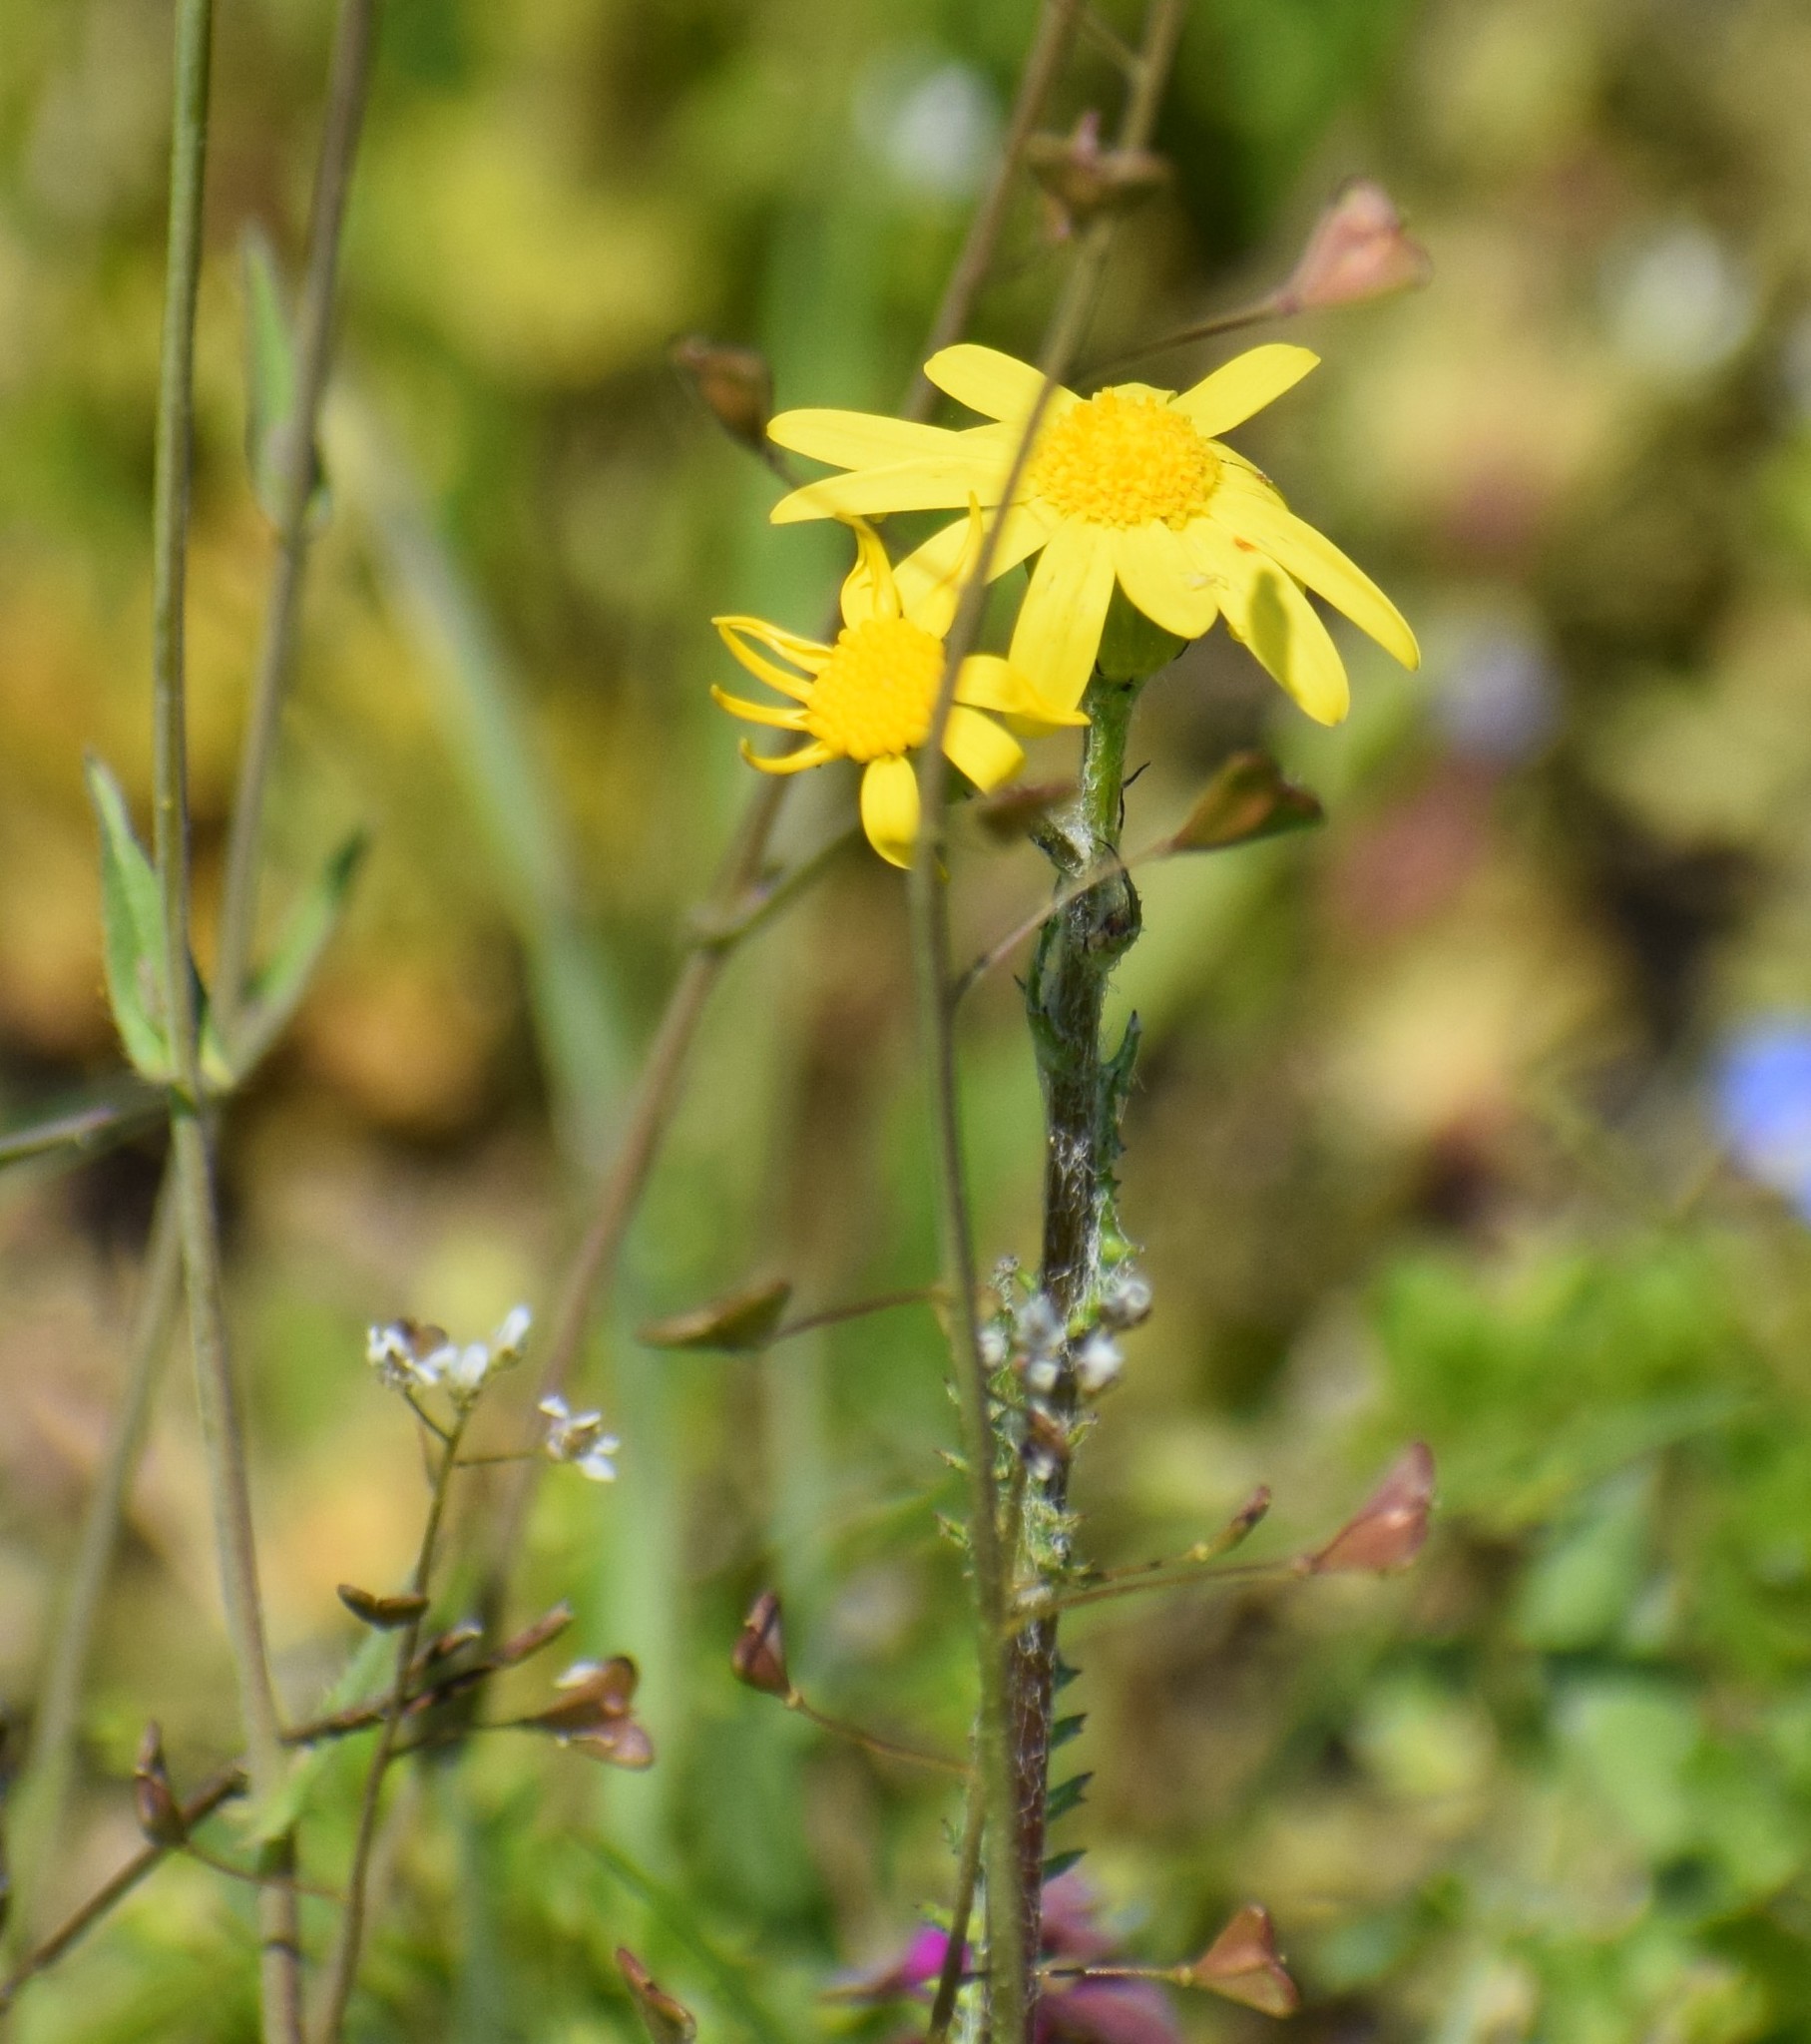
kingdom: Plantae
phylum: Tracheophyta
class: Magnoliopsida
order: Asterales
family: Asteraceae
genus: Senecio
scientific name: Senecio vernalis
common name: Eastern groundsel
